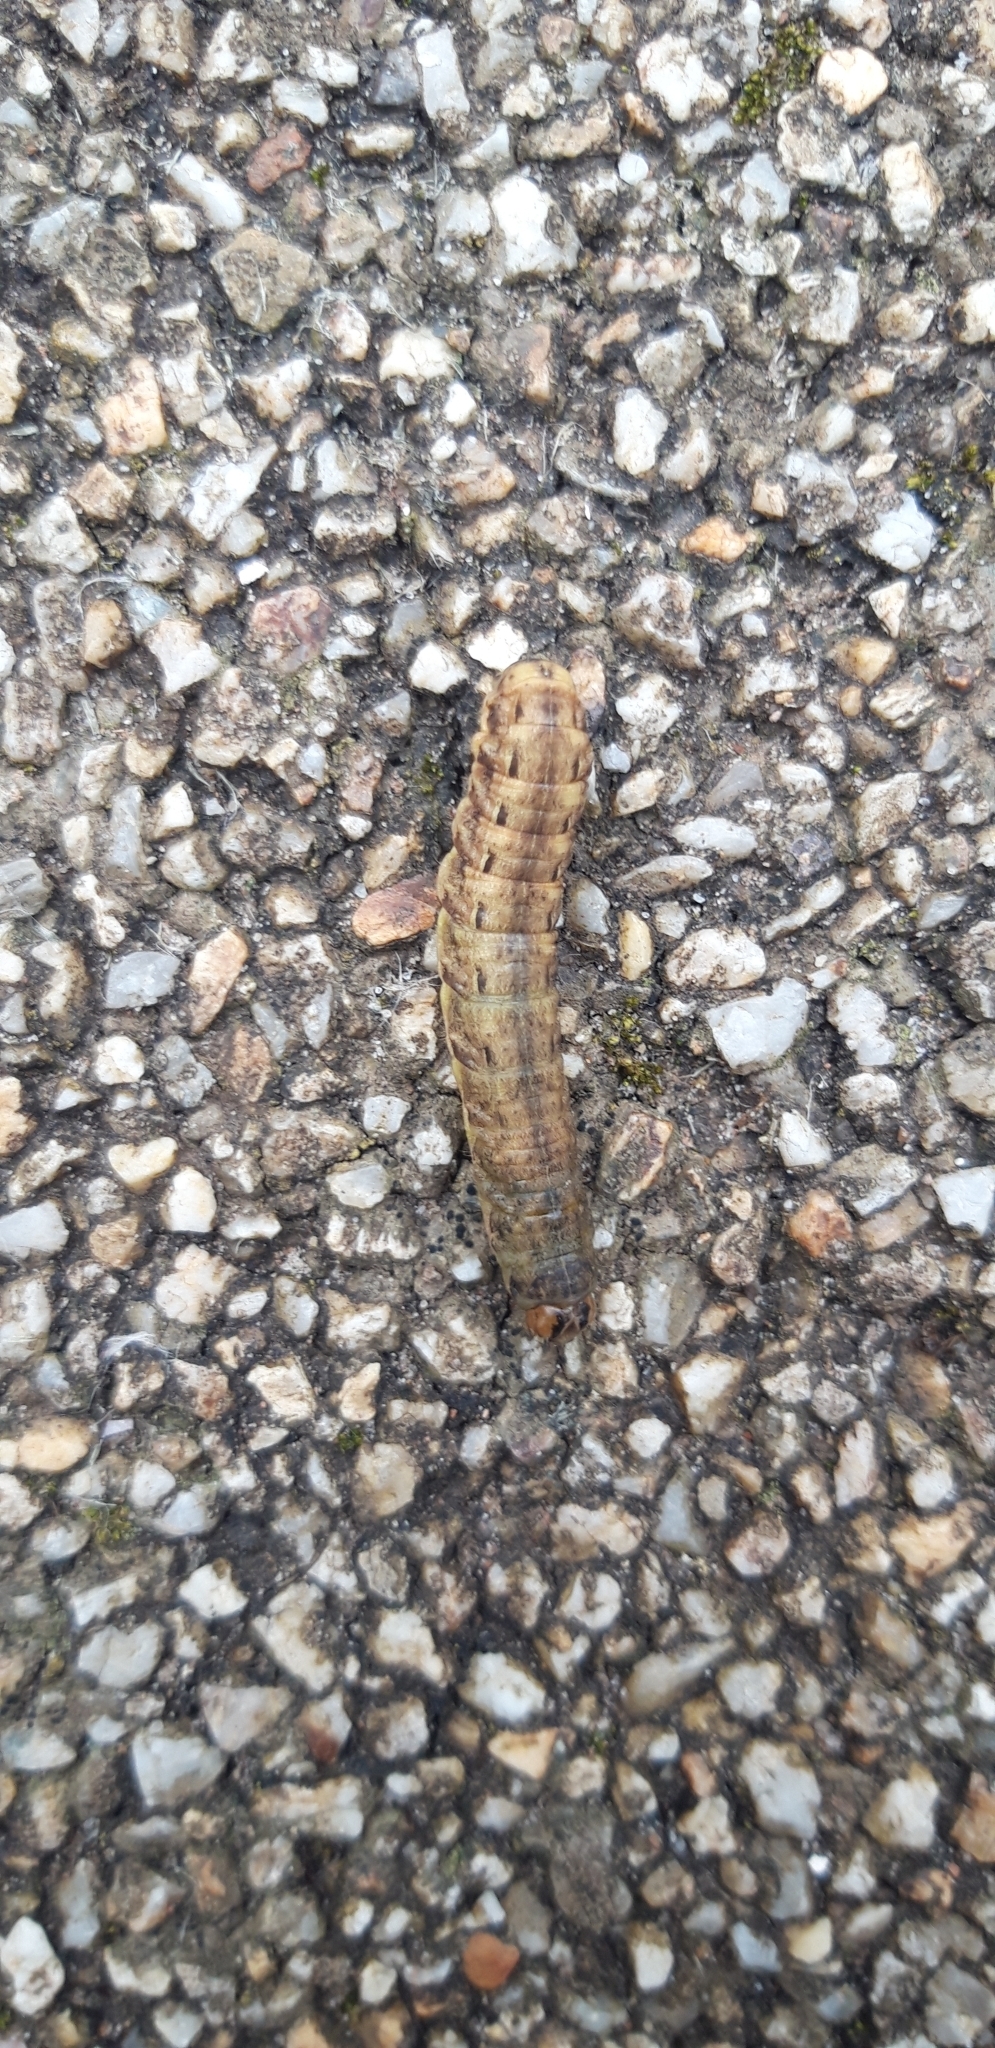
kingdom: Animalia
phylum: Arthropoda
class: Insecta
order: Lepidoptera
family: Noctuidae
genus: Noctua
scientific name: Noctua pronuba
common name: Large yellow underwing
